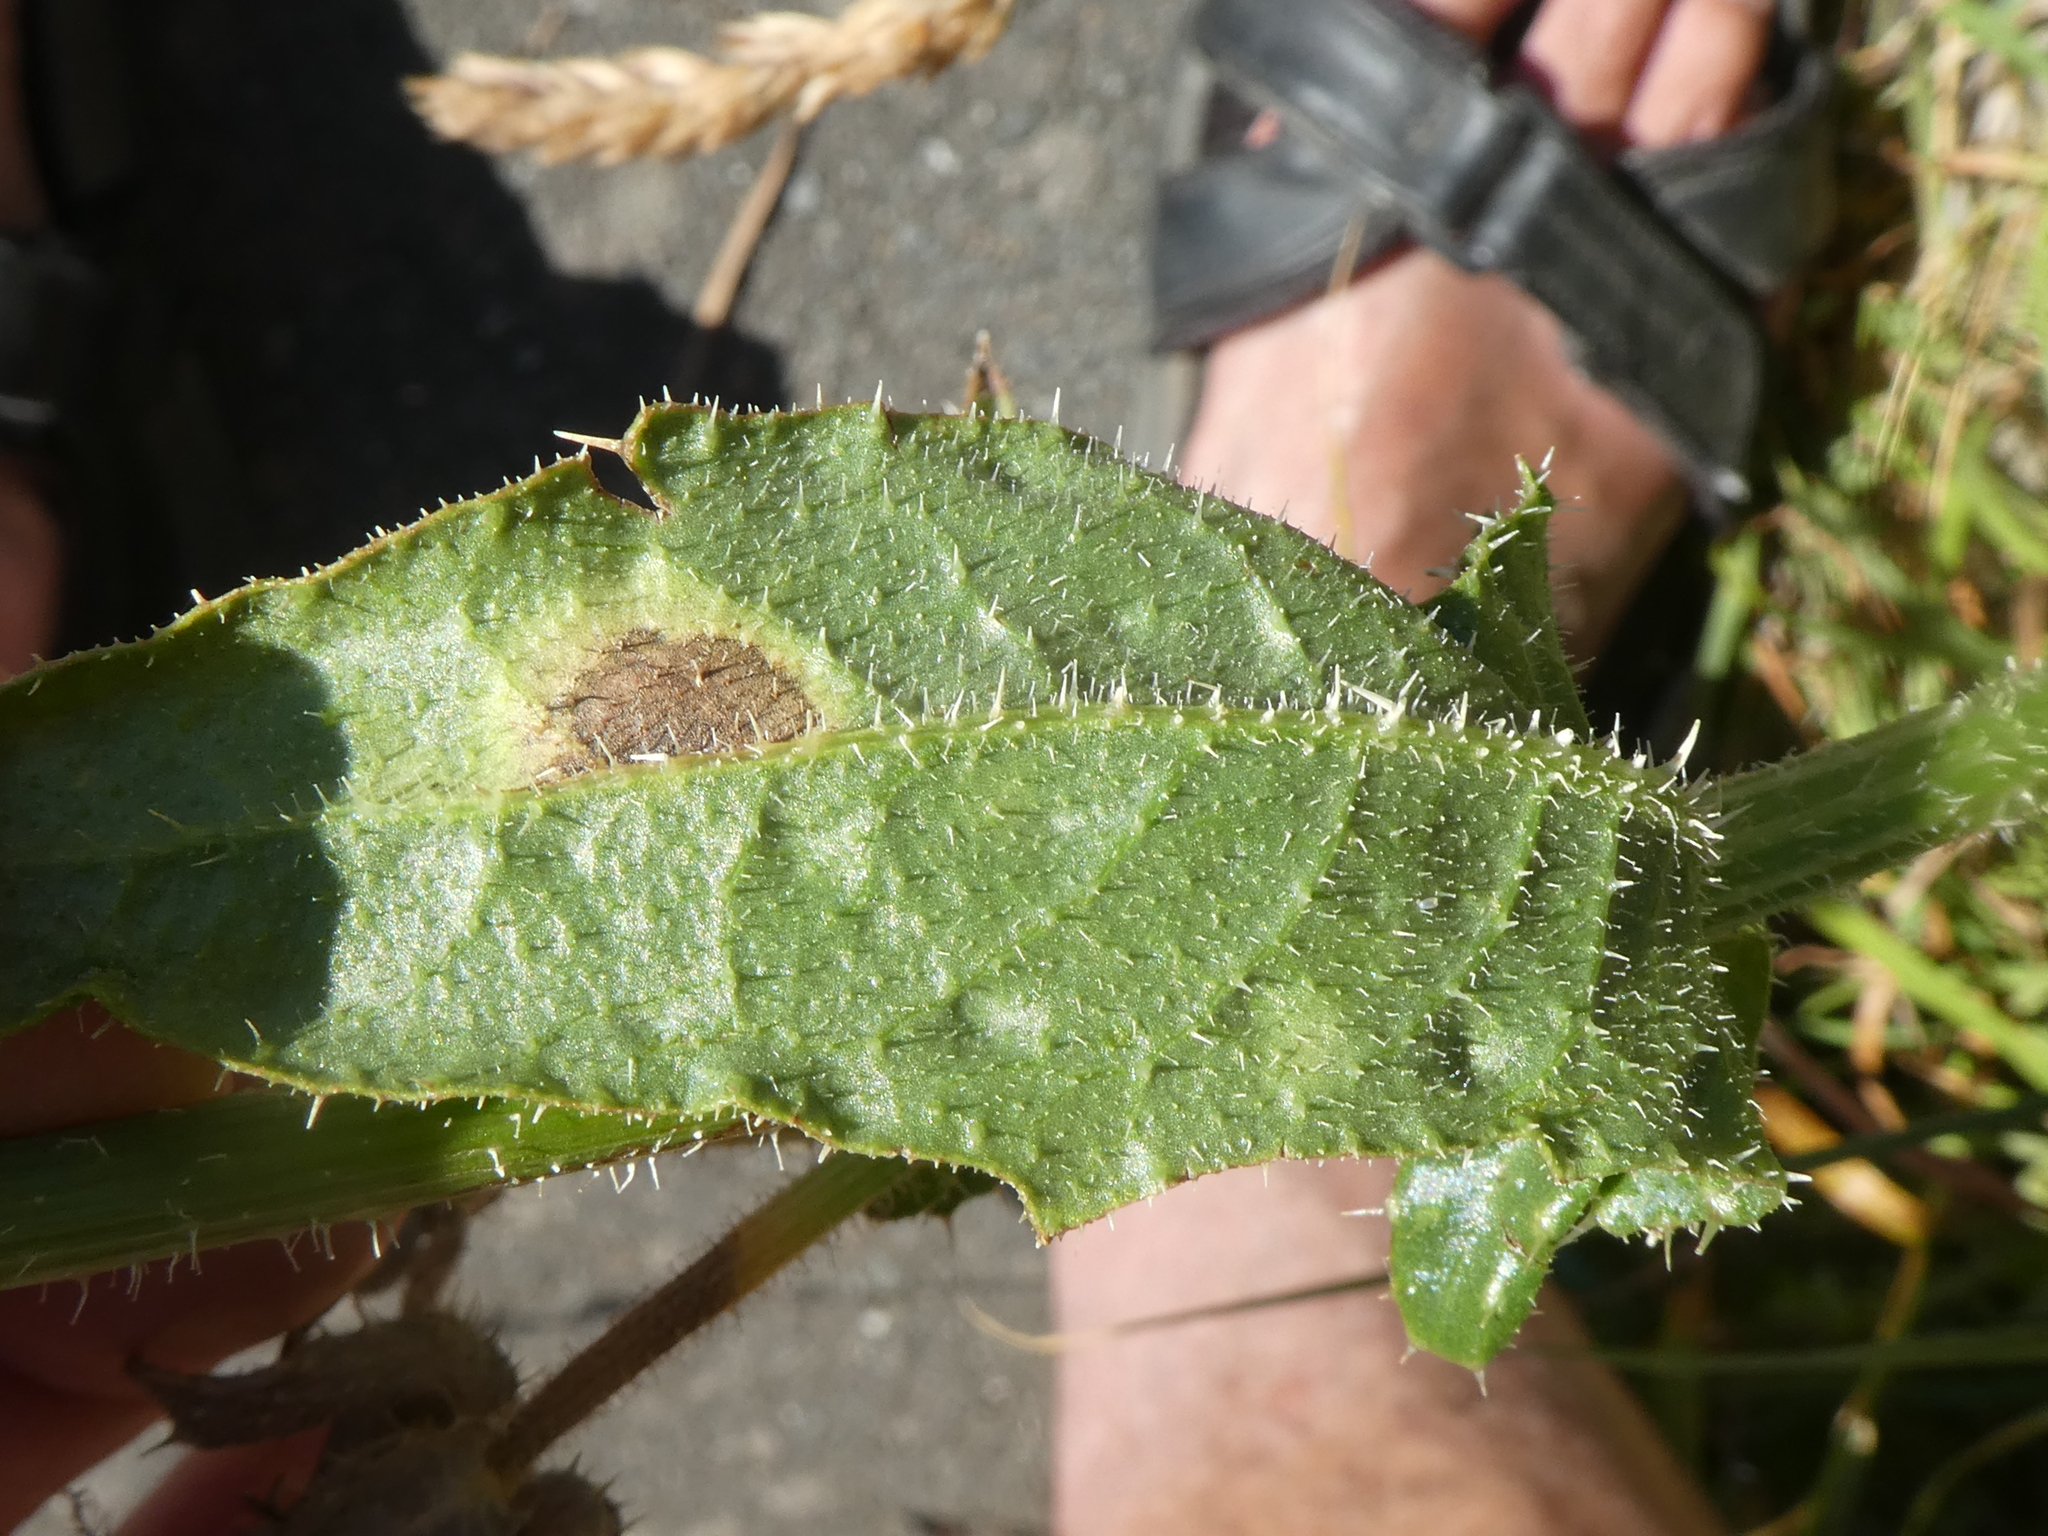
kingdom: Plantae
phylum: Tracheophyta
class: Magnoliopsida
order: Asterales
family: Asteraceae
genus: Helminthotheca
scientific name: Helminthotheca echioides
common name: Ox-tongue
